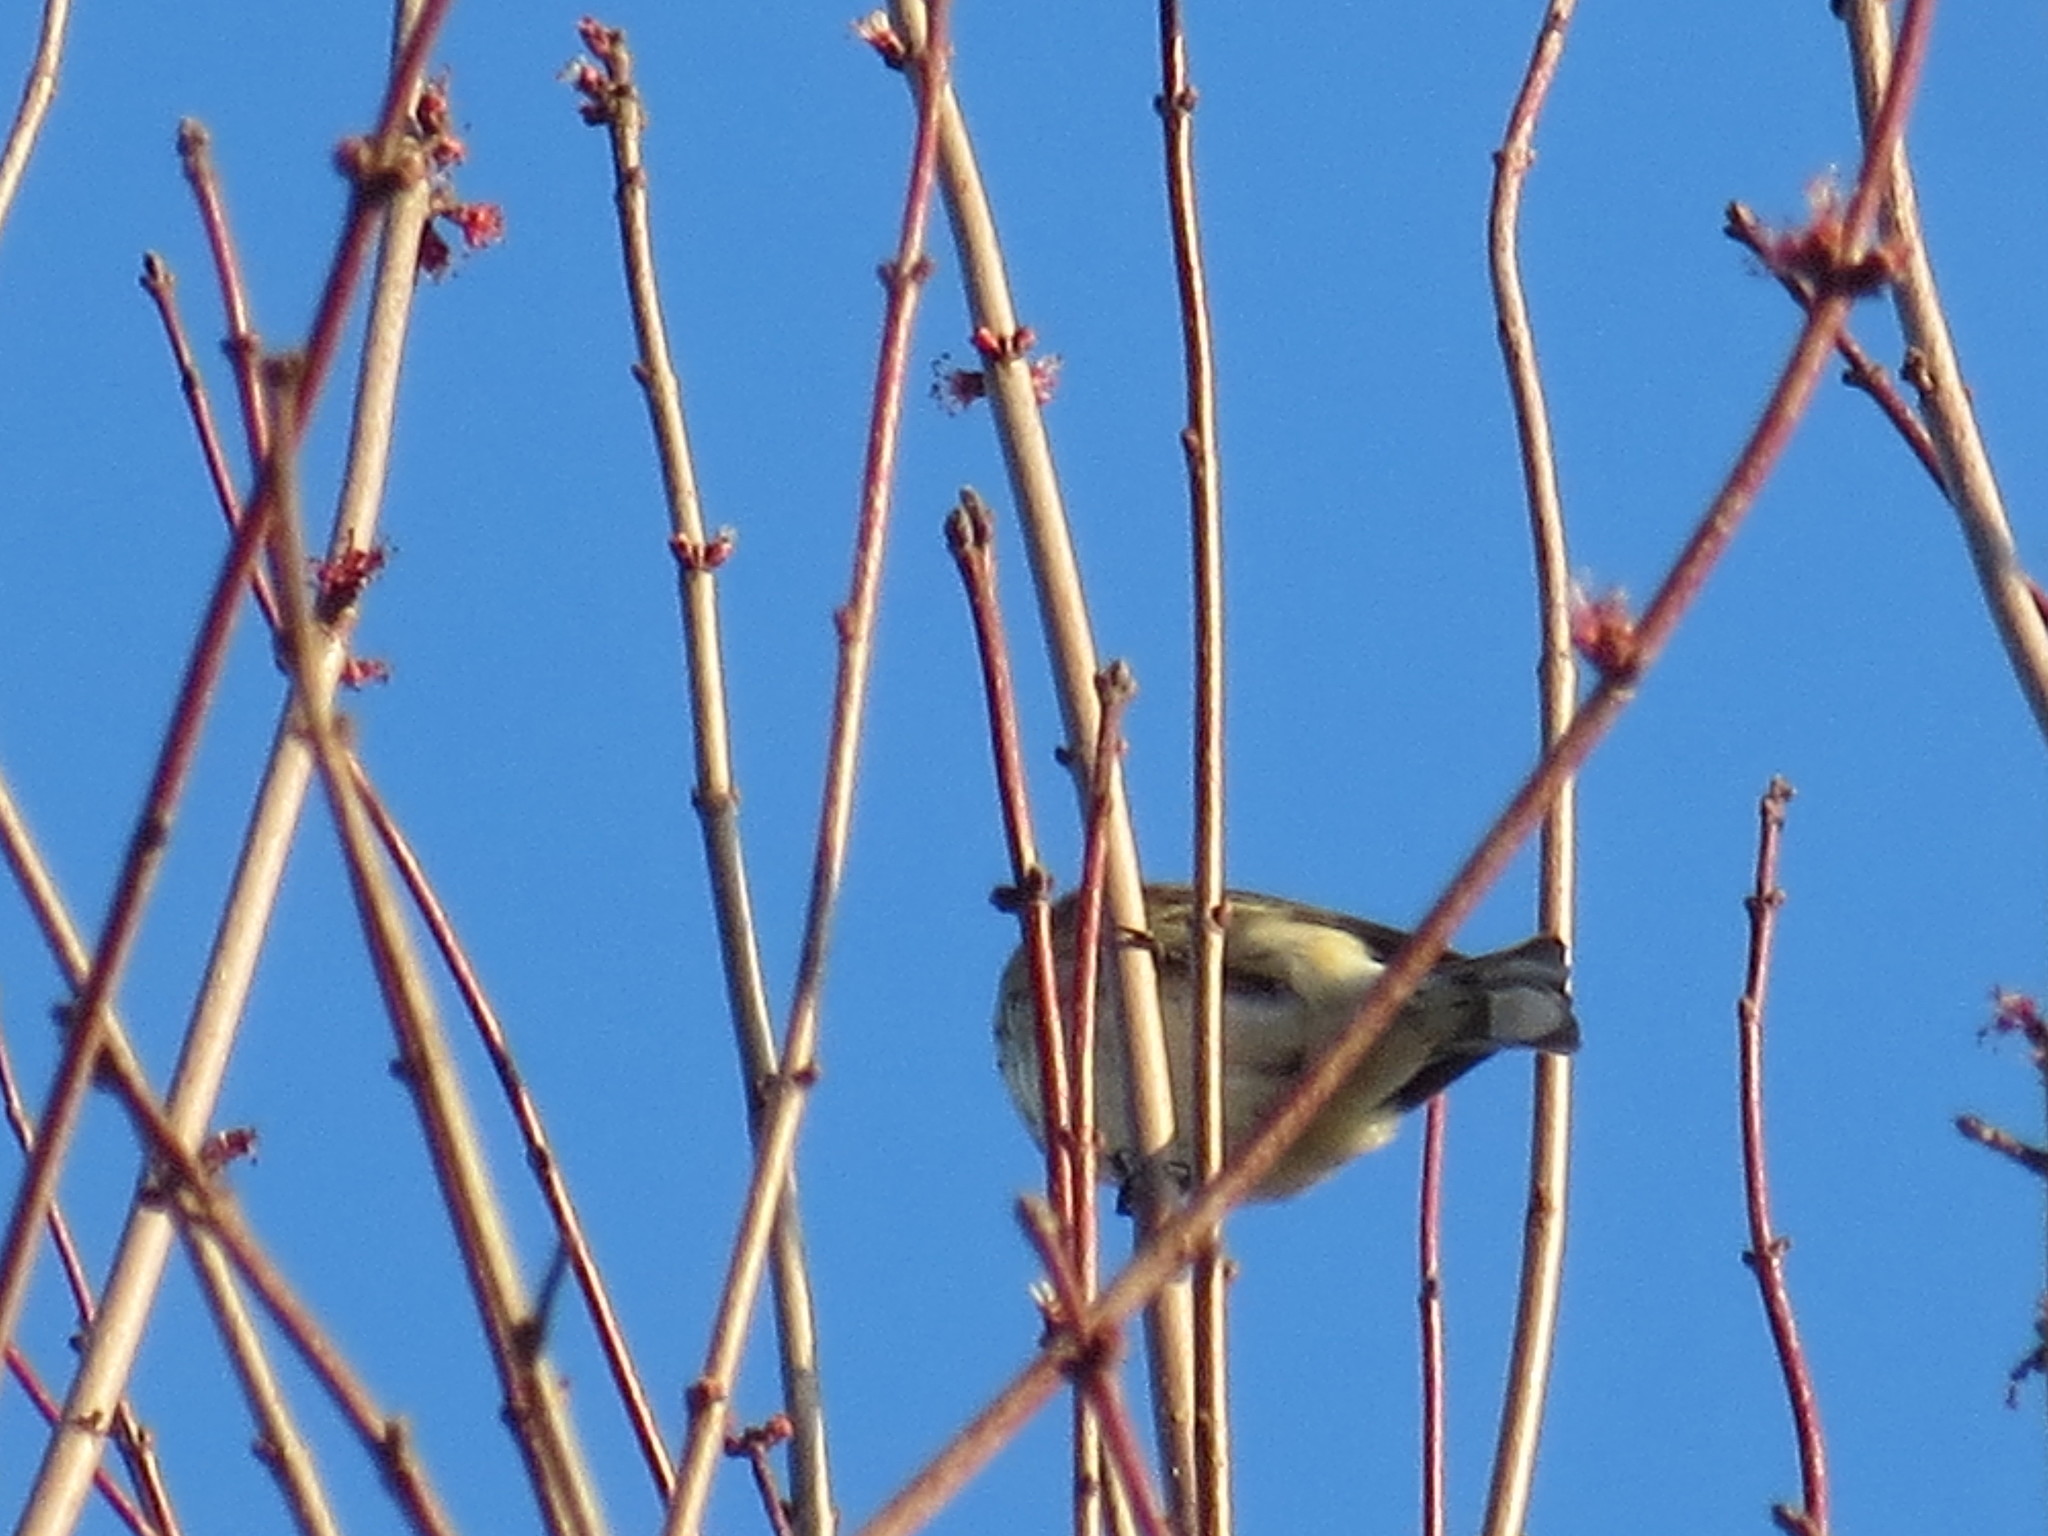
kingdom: Animalia
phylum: Chordata
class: Aves
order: Passeriformes
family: Parulidae
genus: Setophaga
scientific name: Setophaga coronata
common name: Myrtle warbler
